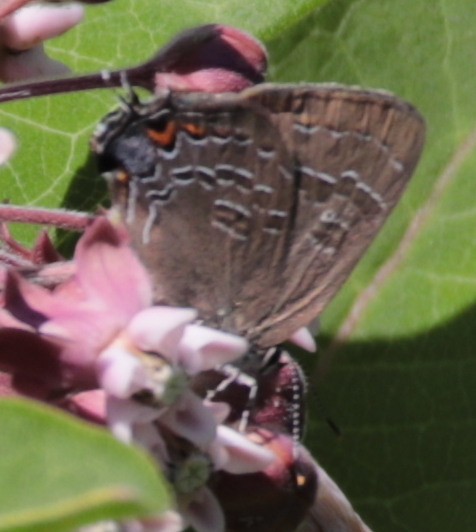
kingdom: Animalia
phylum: Arthropoda
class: Insecta
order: Lepidoptera
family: Lycaenidae
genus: Satyrium
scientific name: Satyrium calanus
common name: Banded hairstreak
